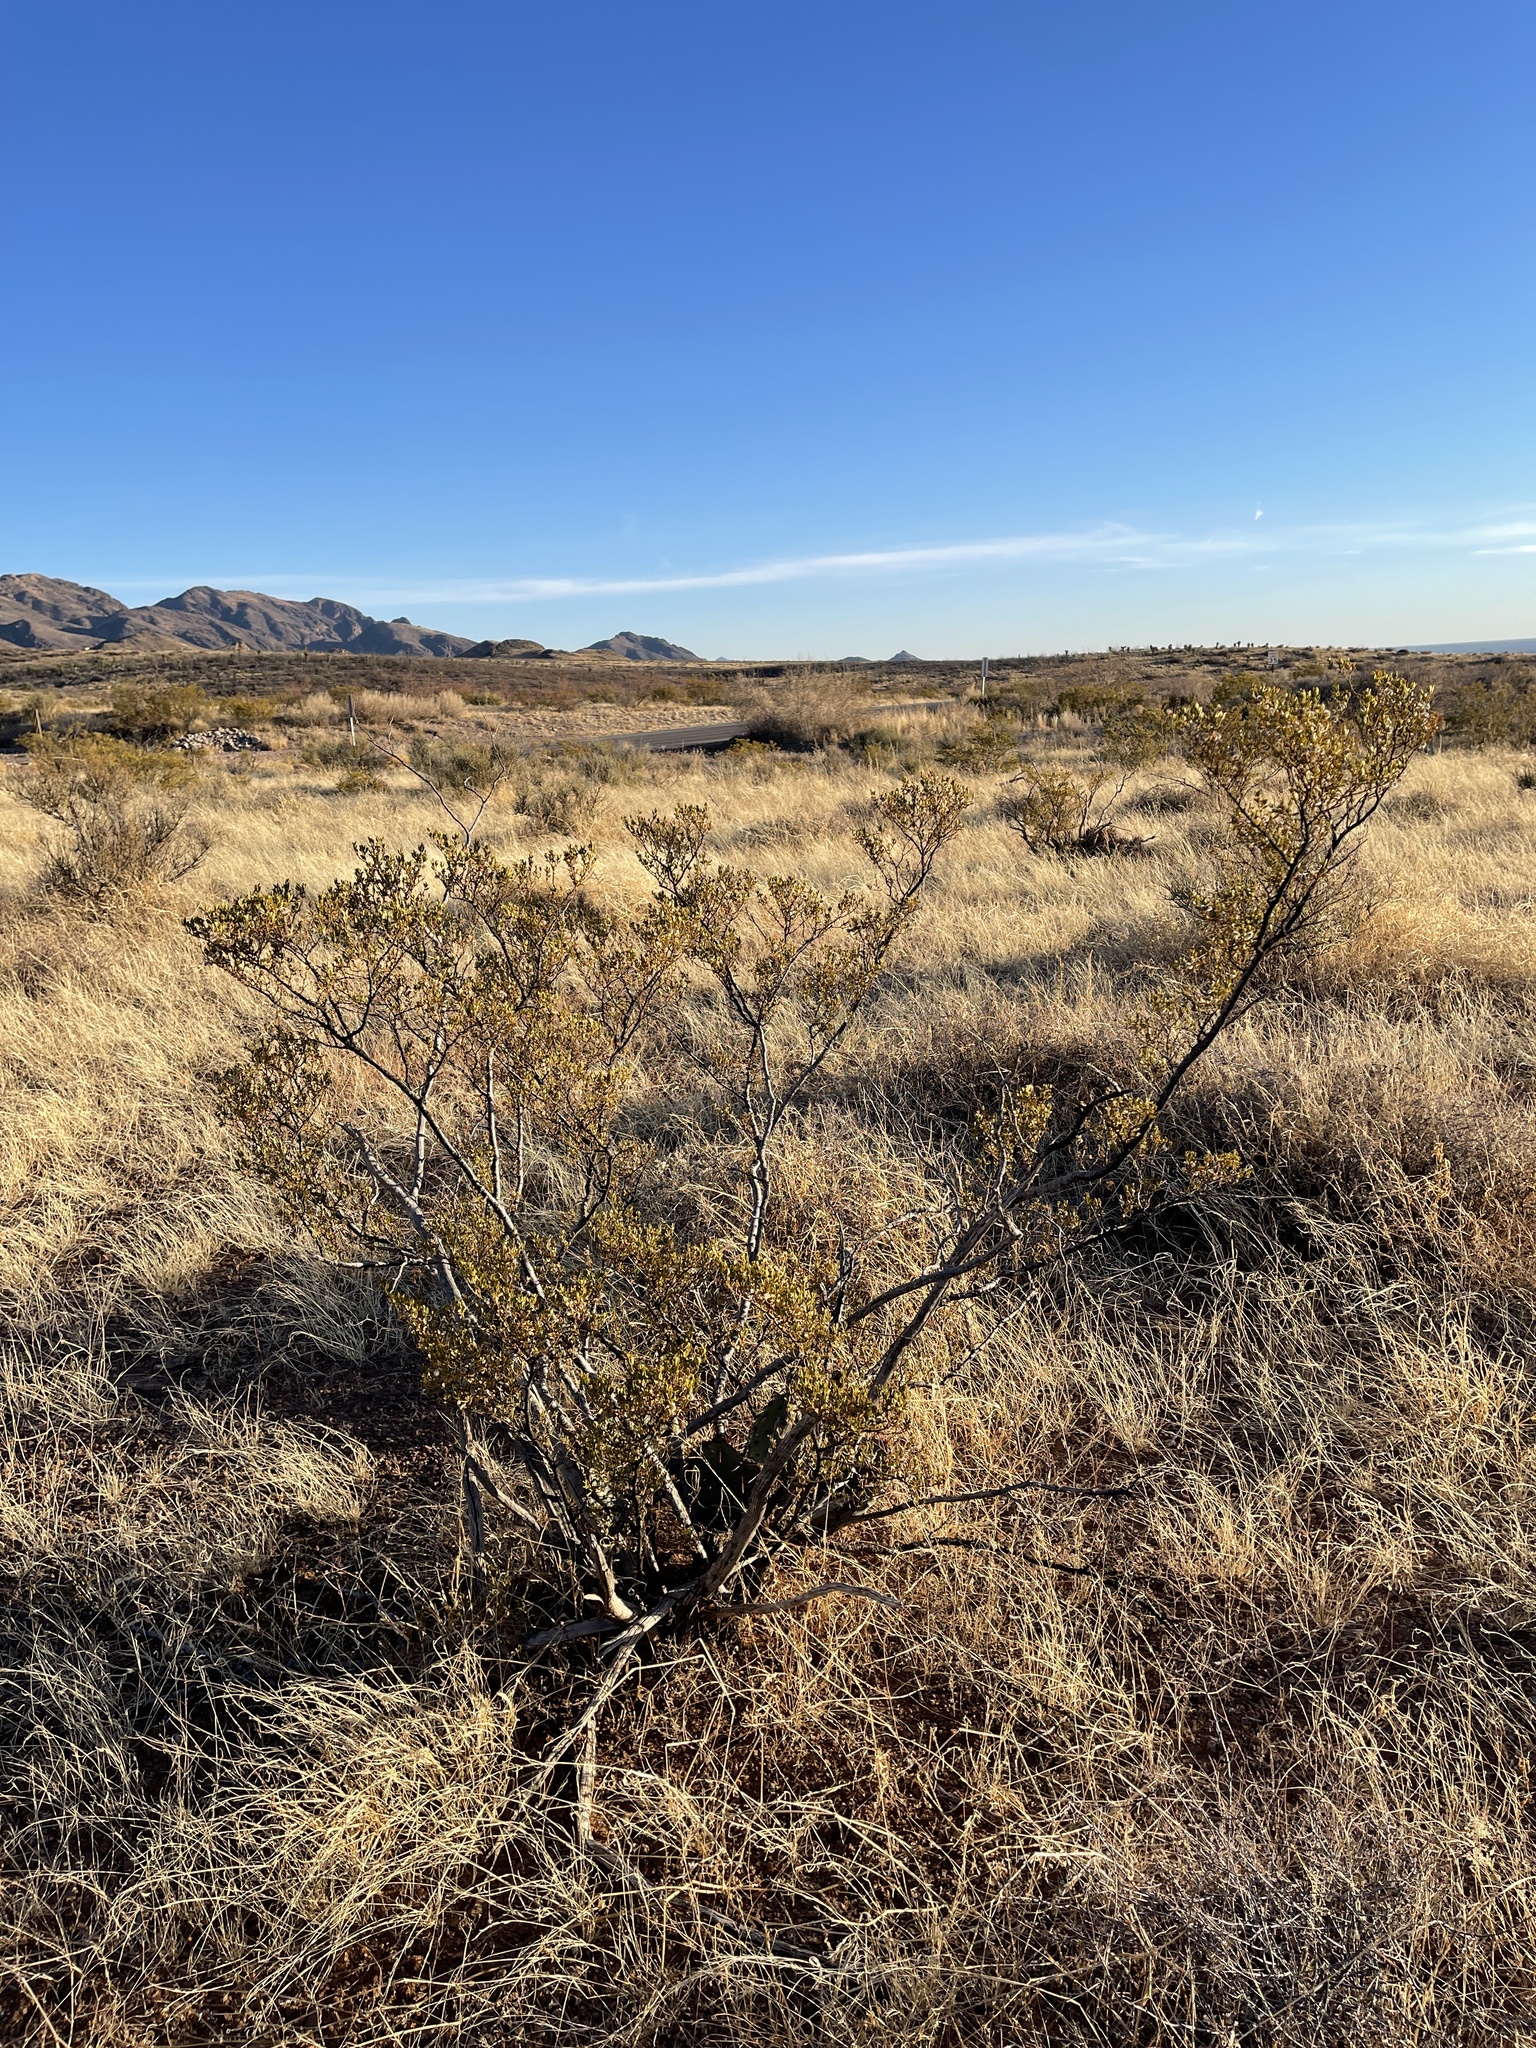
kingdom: Plantae
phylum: Tracheophyta
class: Magnoliopsida
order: Zygophyllales
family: Zygophyllaceae
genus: Larrea
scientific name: Larrea tridentata
